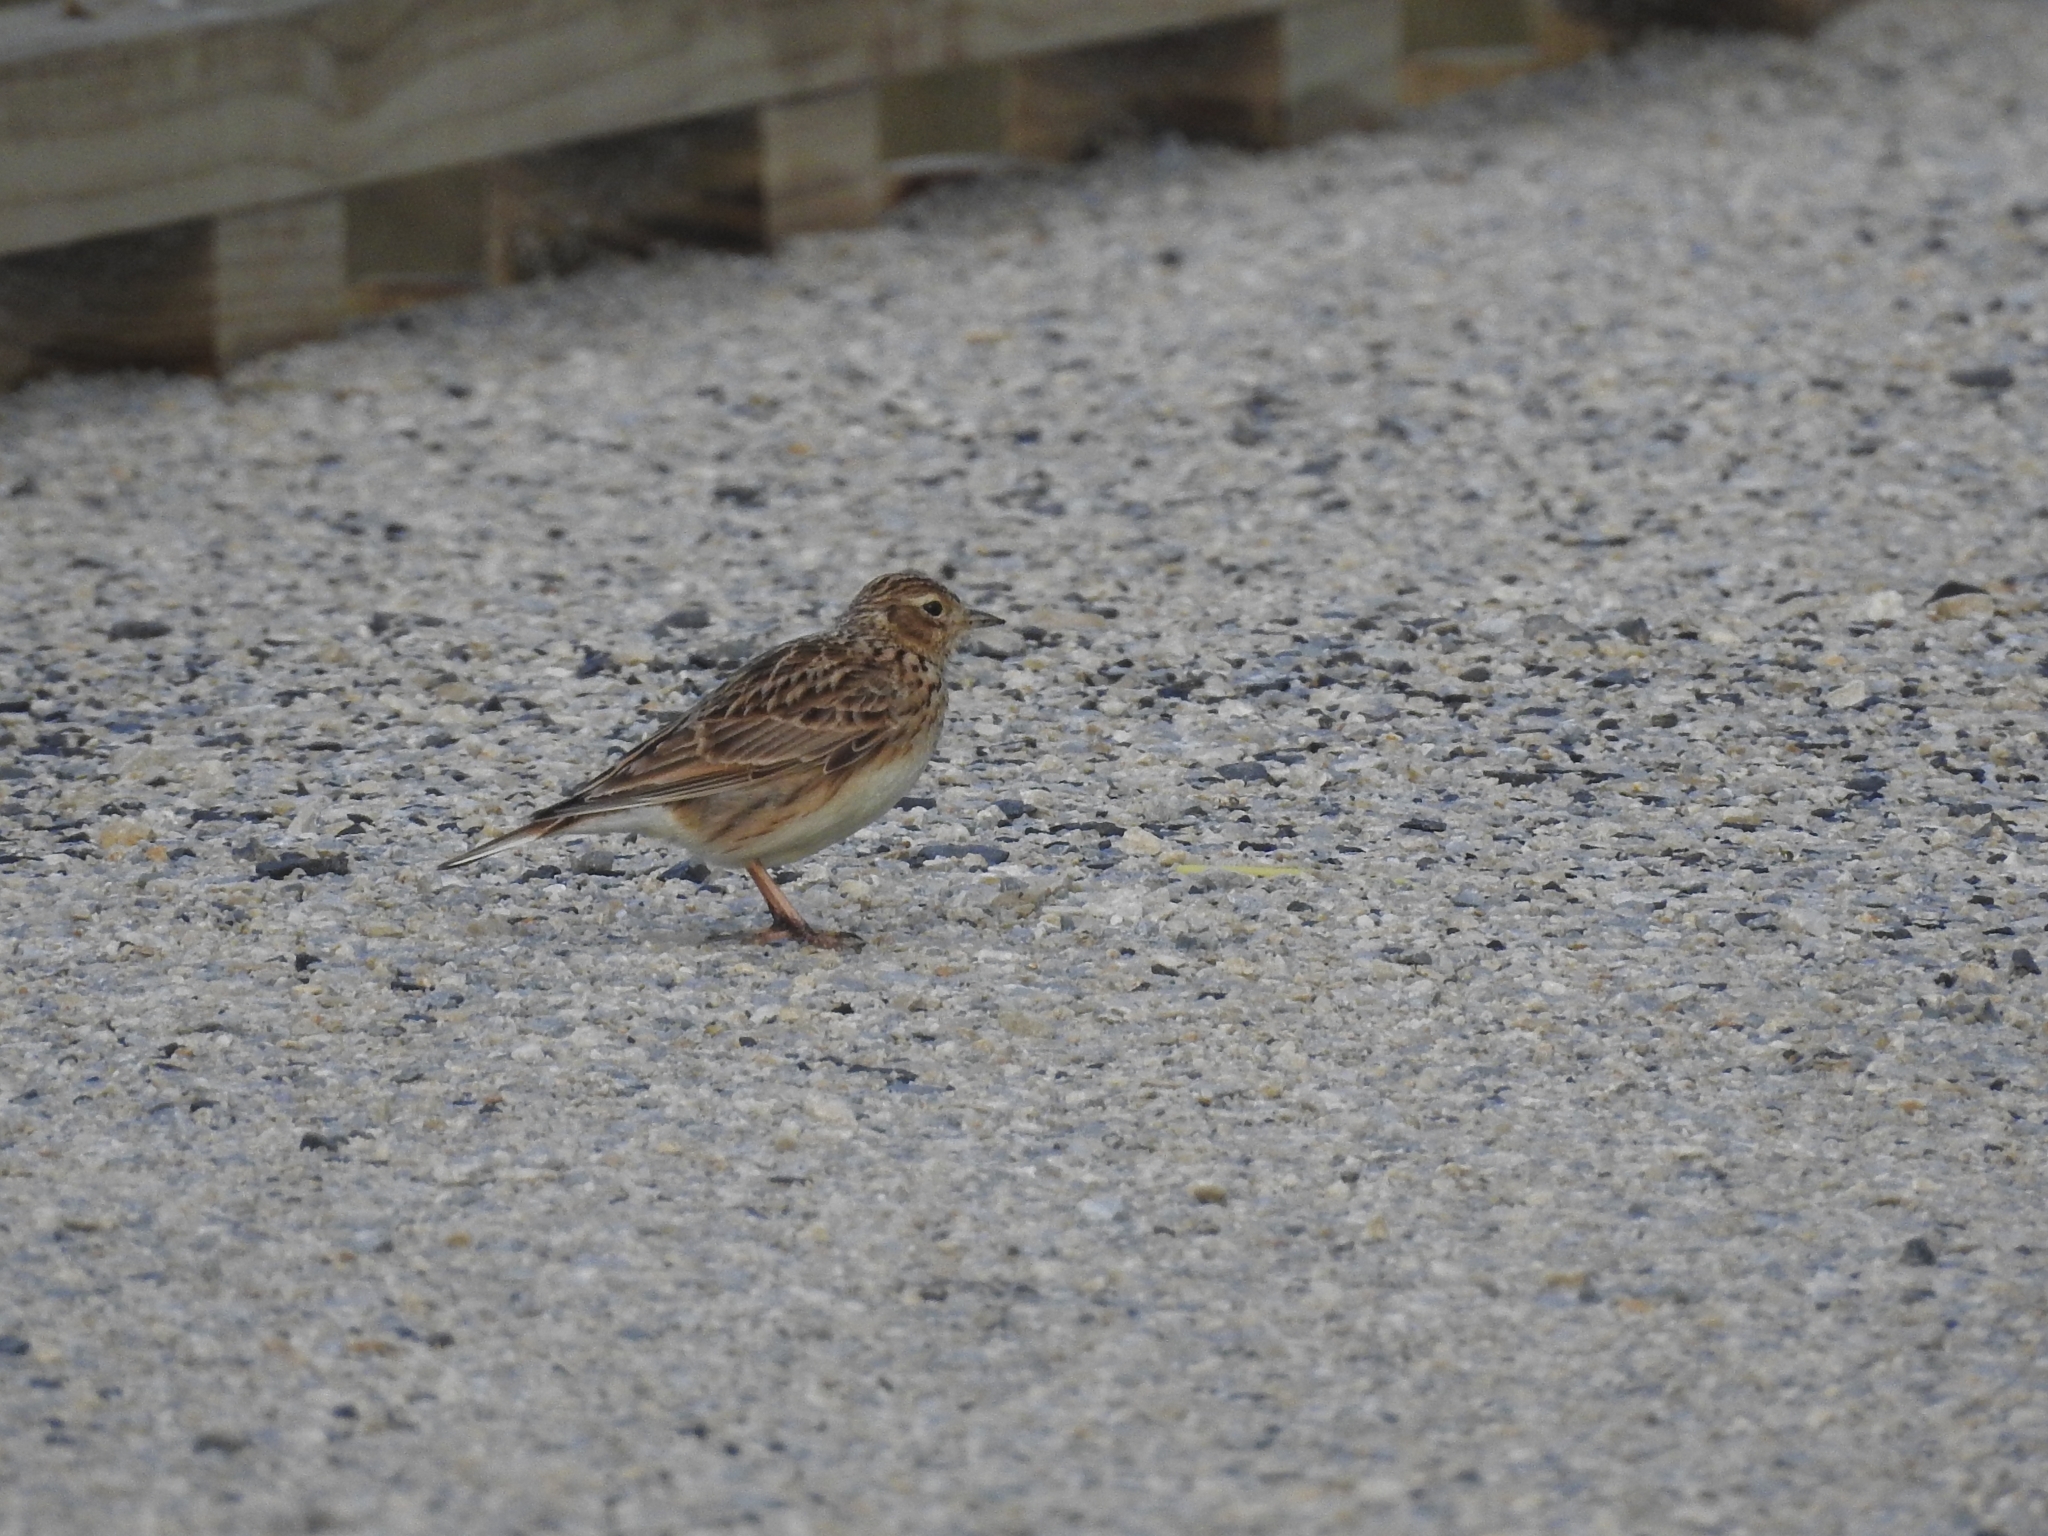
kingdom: Animalia
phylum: Chordata
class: Aves
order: Passeriformes
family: Alaudidae
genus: Alauda
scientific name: Alauda arvensis
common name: Eurasian skylark
